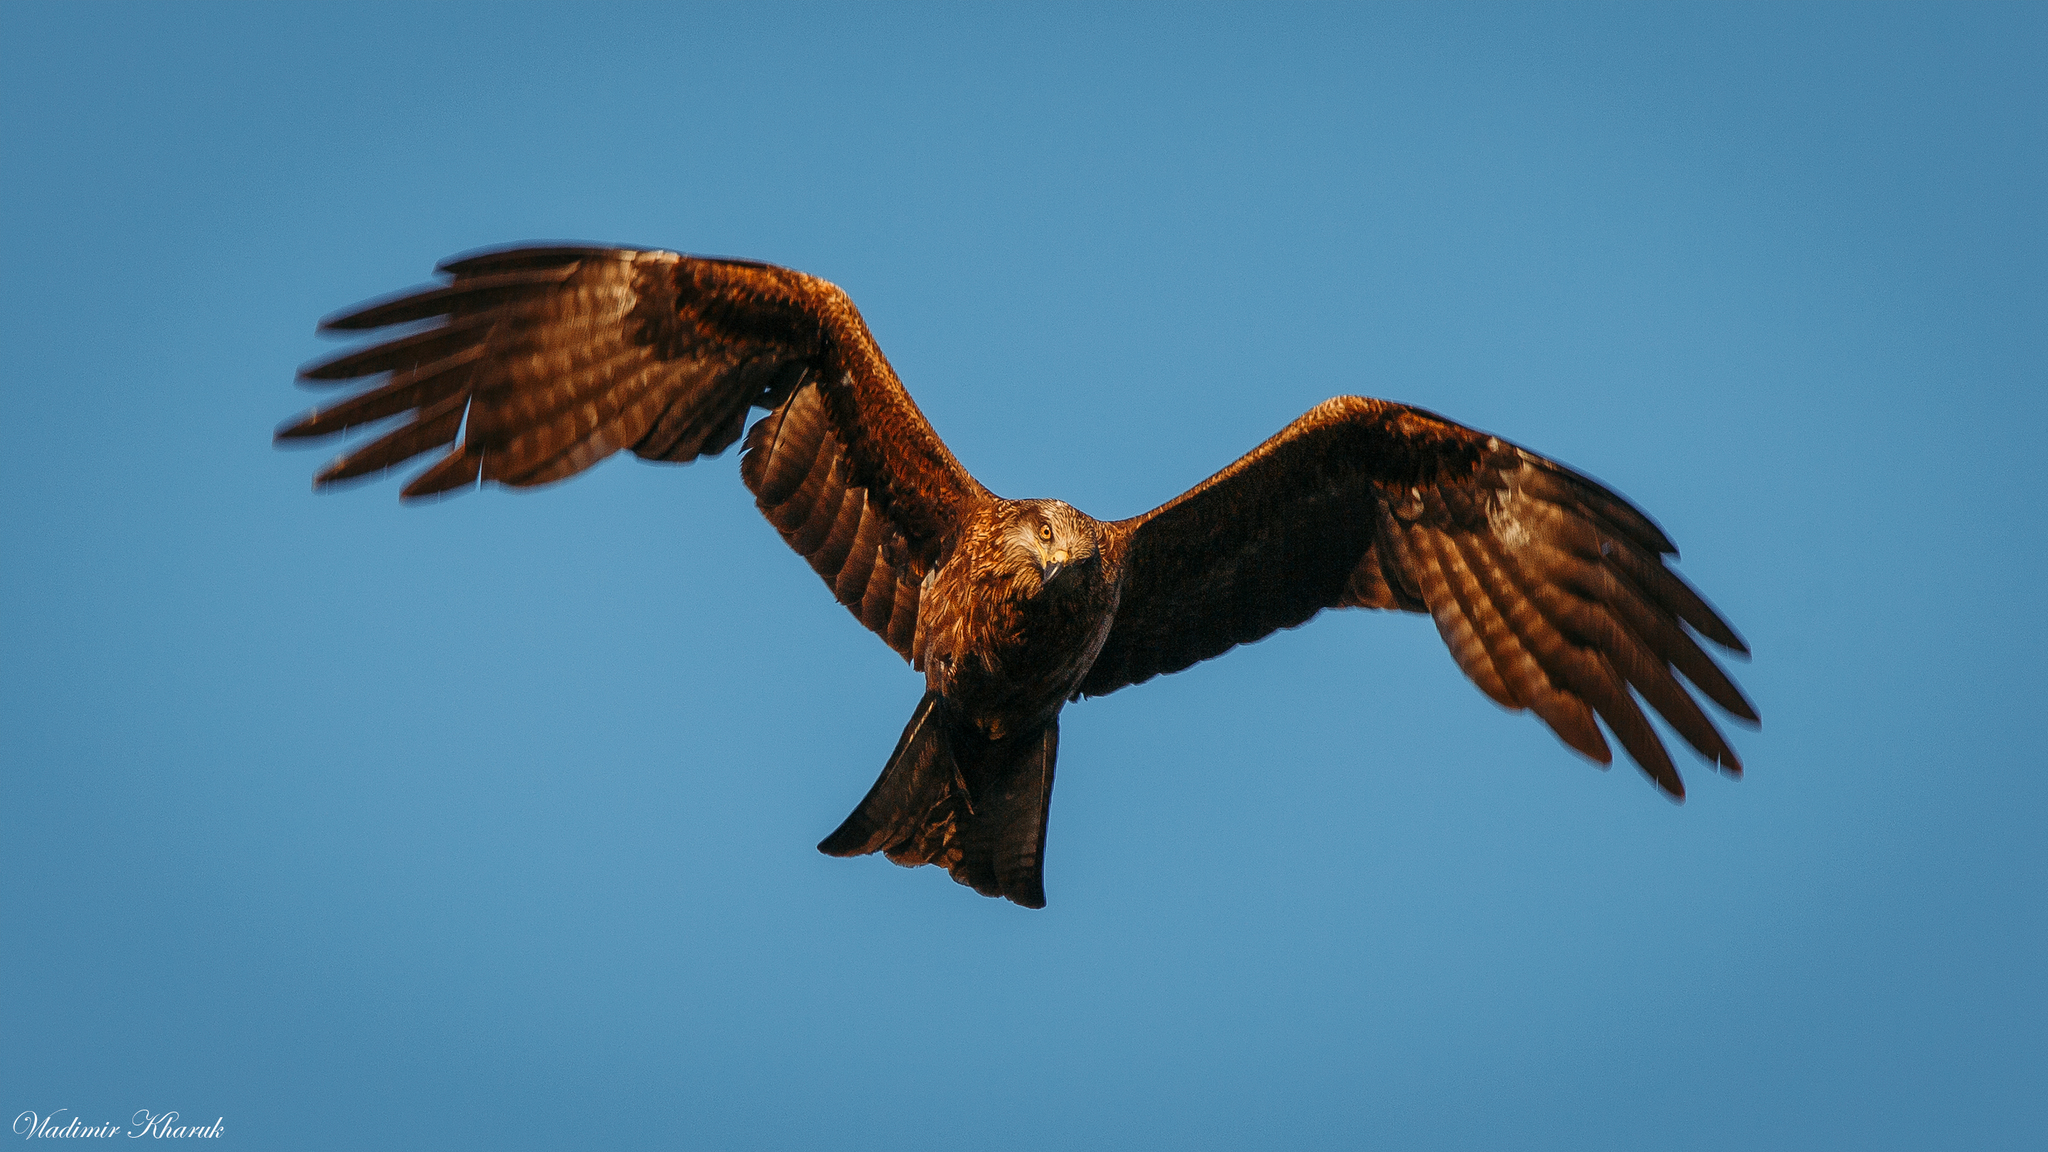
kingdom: Animalia
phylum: Chordata
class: Aves
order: Accipitriformes
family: Accipitridae
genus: Milvus
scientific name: Milvus migrans
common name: Black kite
